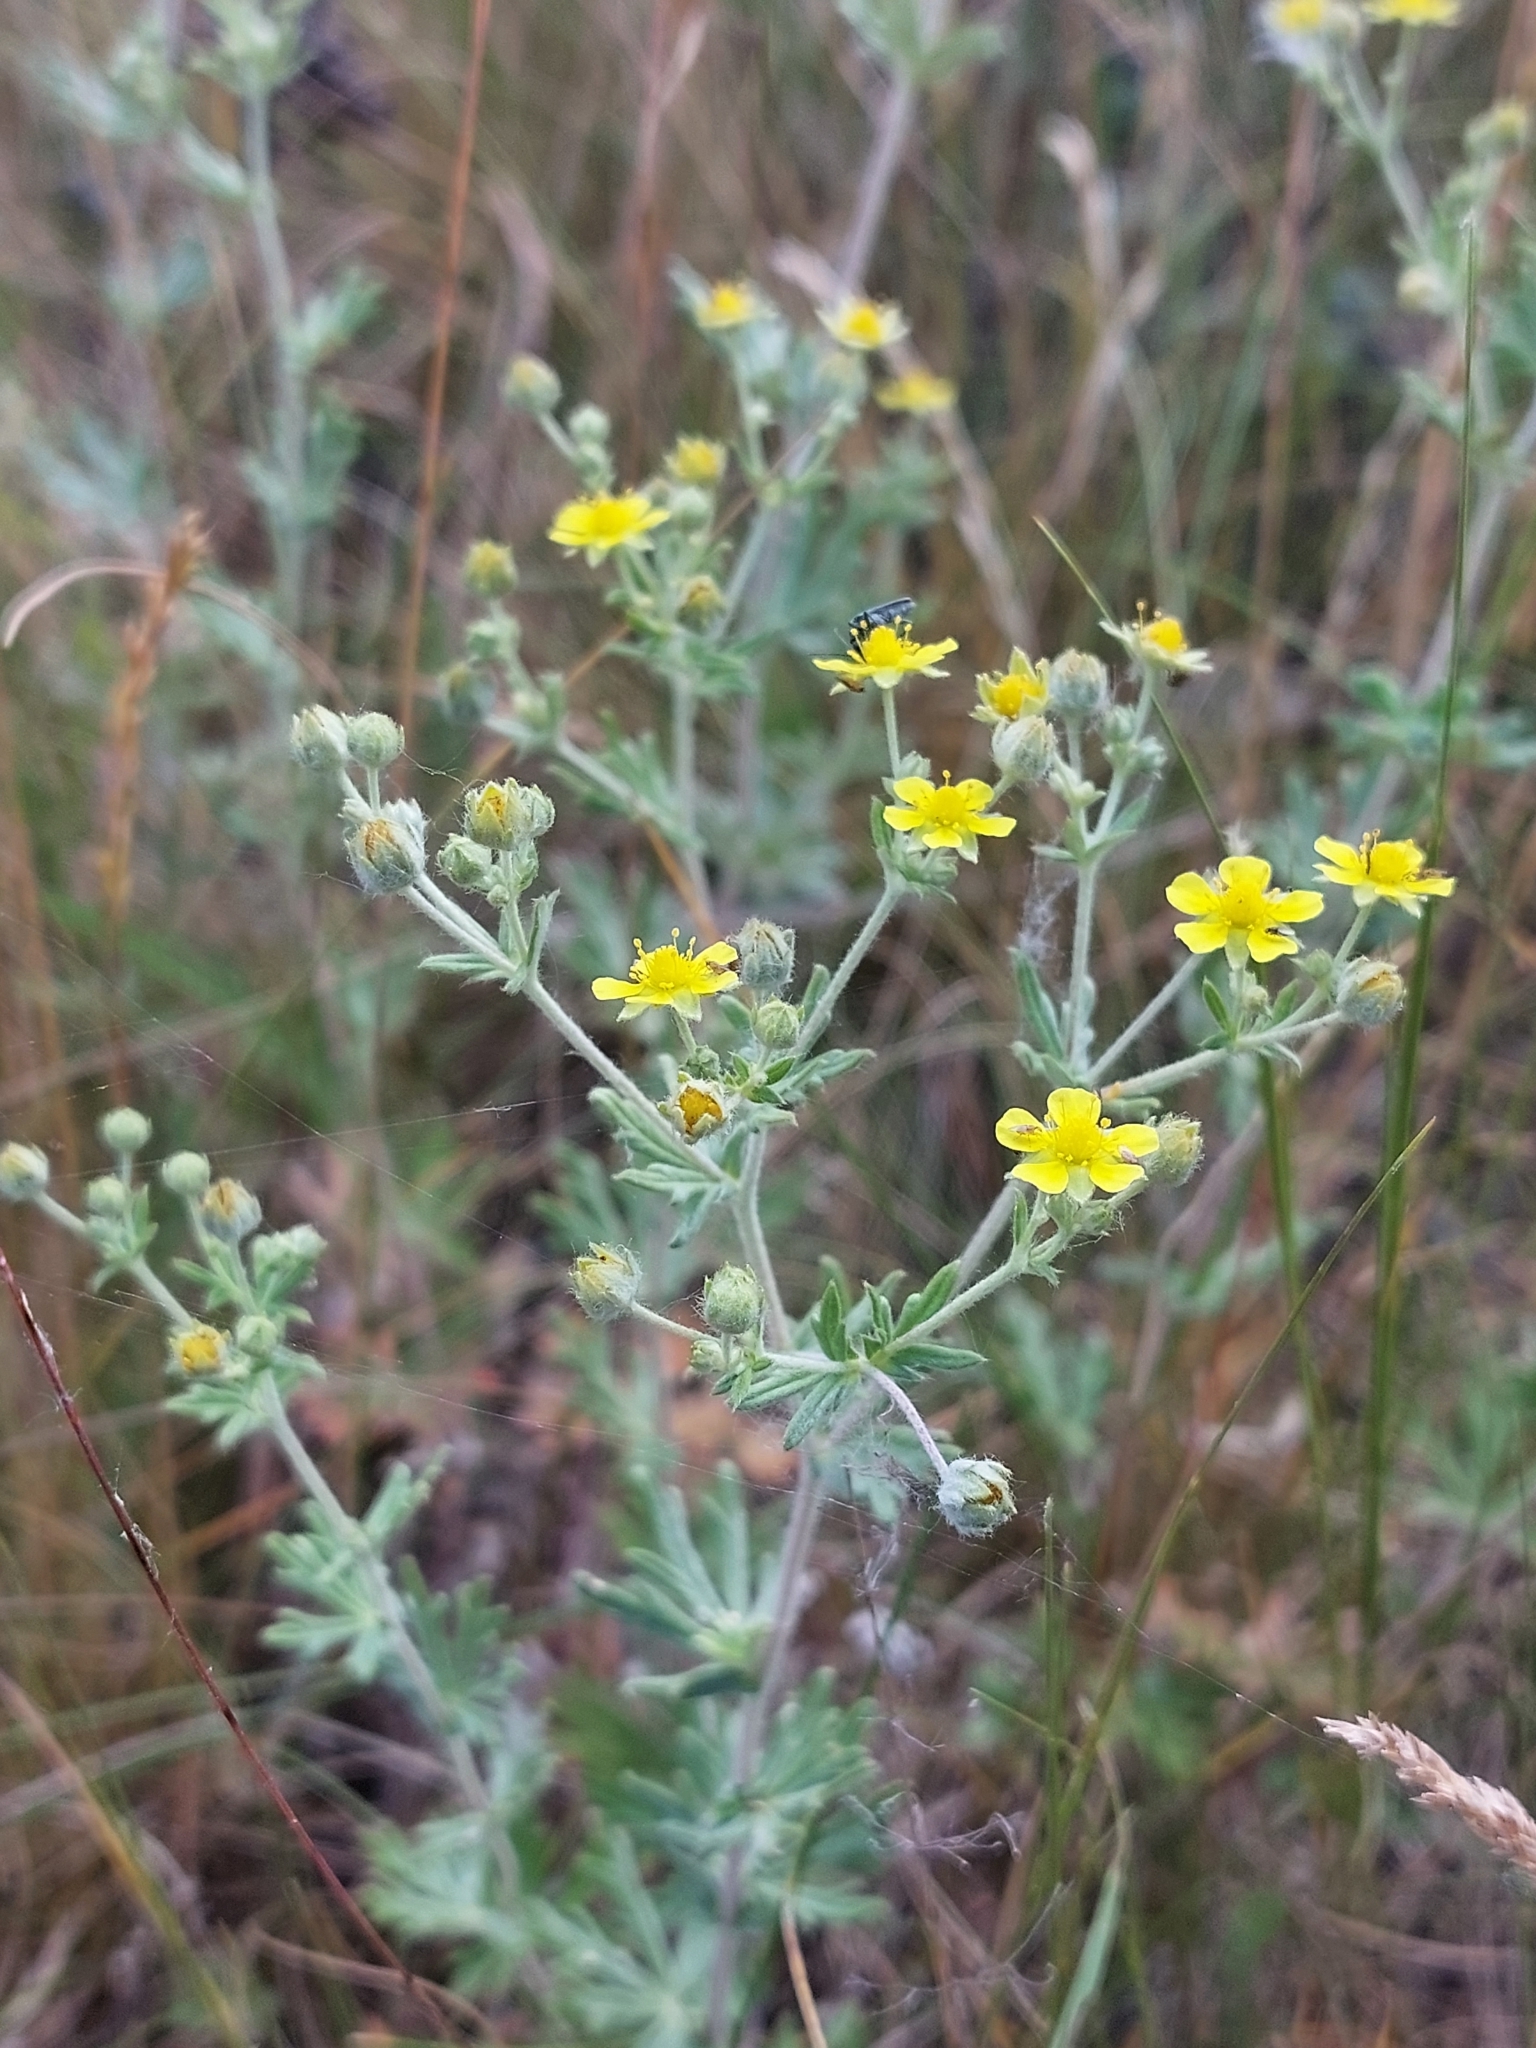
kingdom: Plantae
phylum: Tracheophyta
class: Magnoliopsida
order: Rosales
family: Rosaceae
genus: Potentilla
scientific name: Potentilla argentea
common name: Hoary cinquefoil
